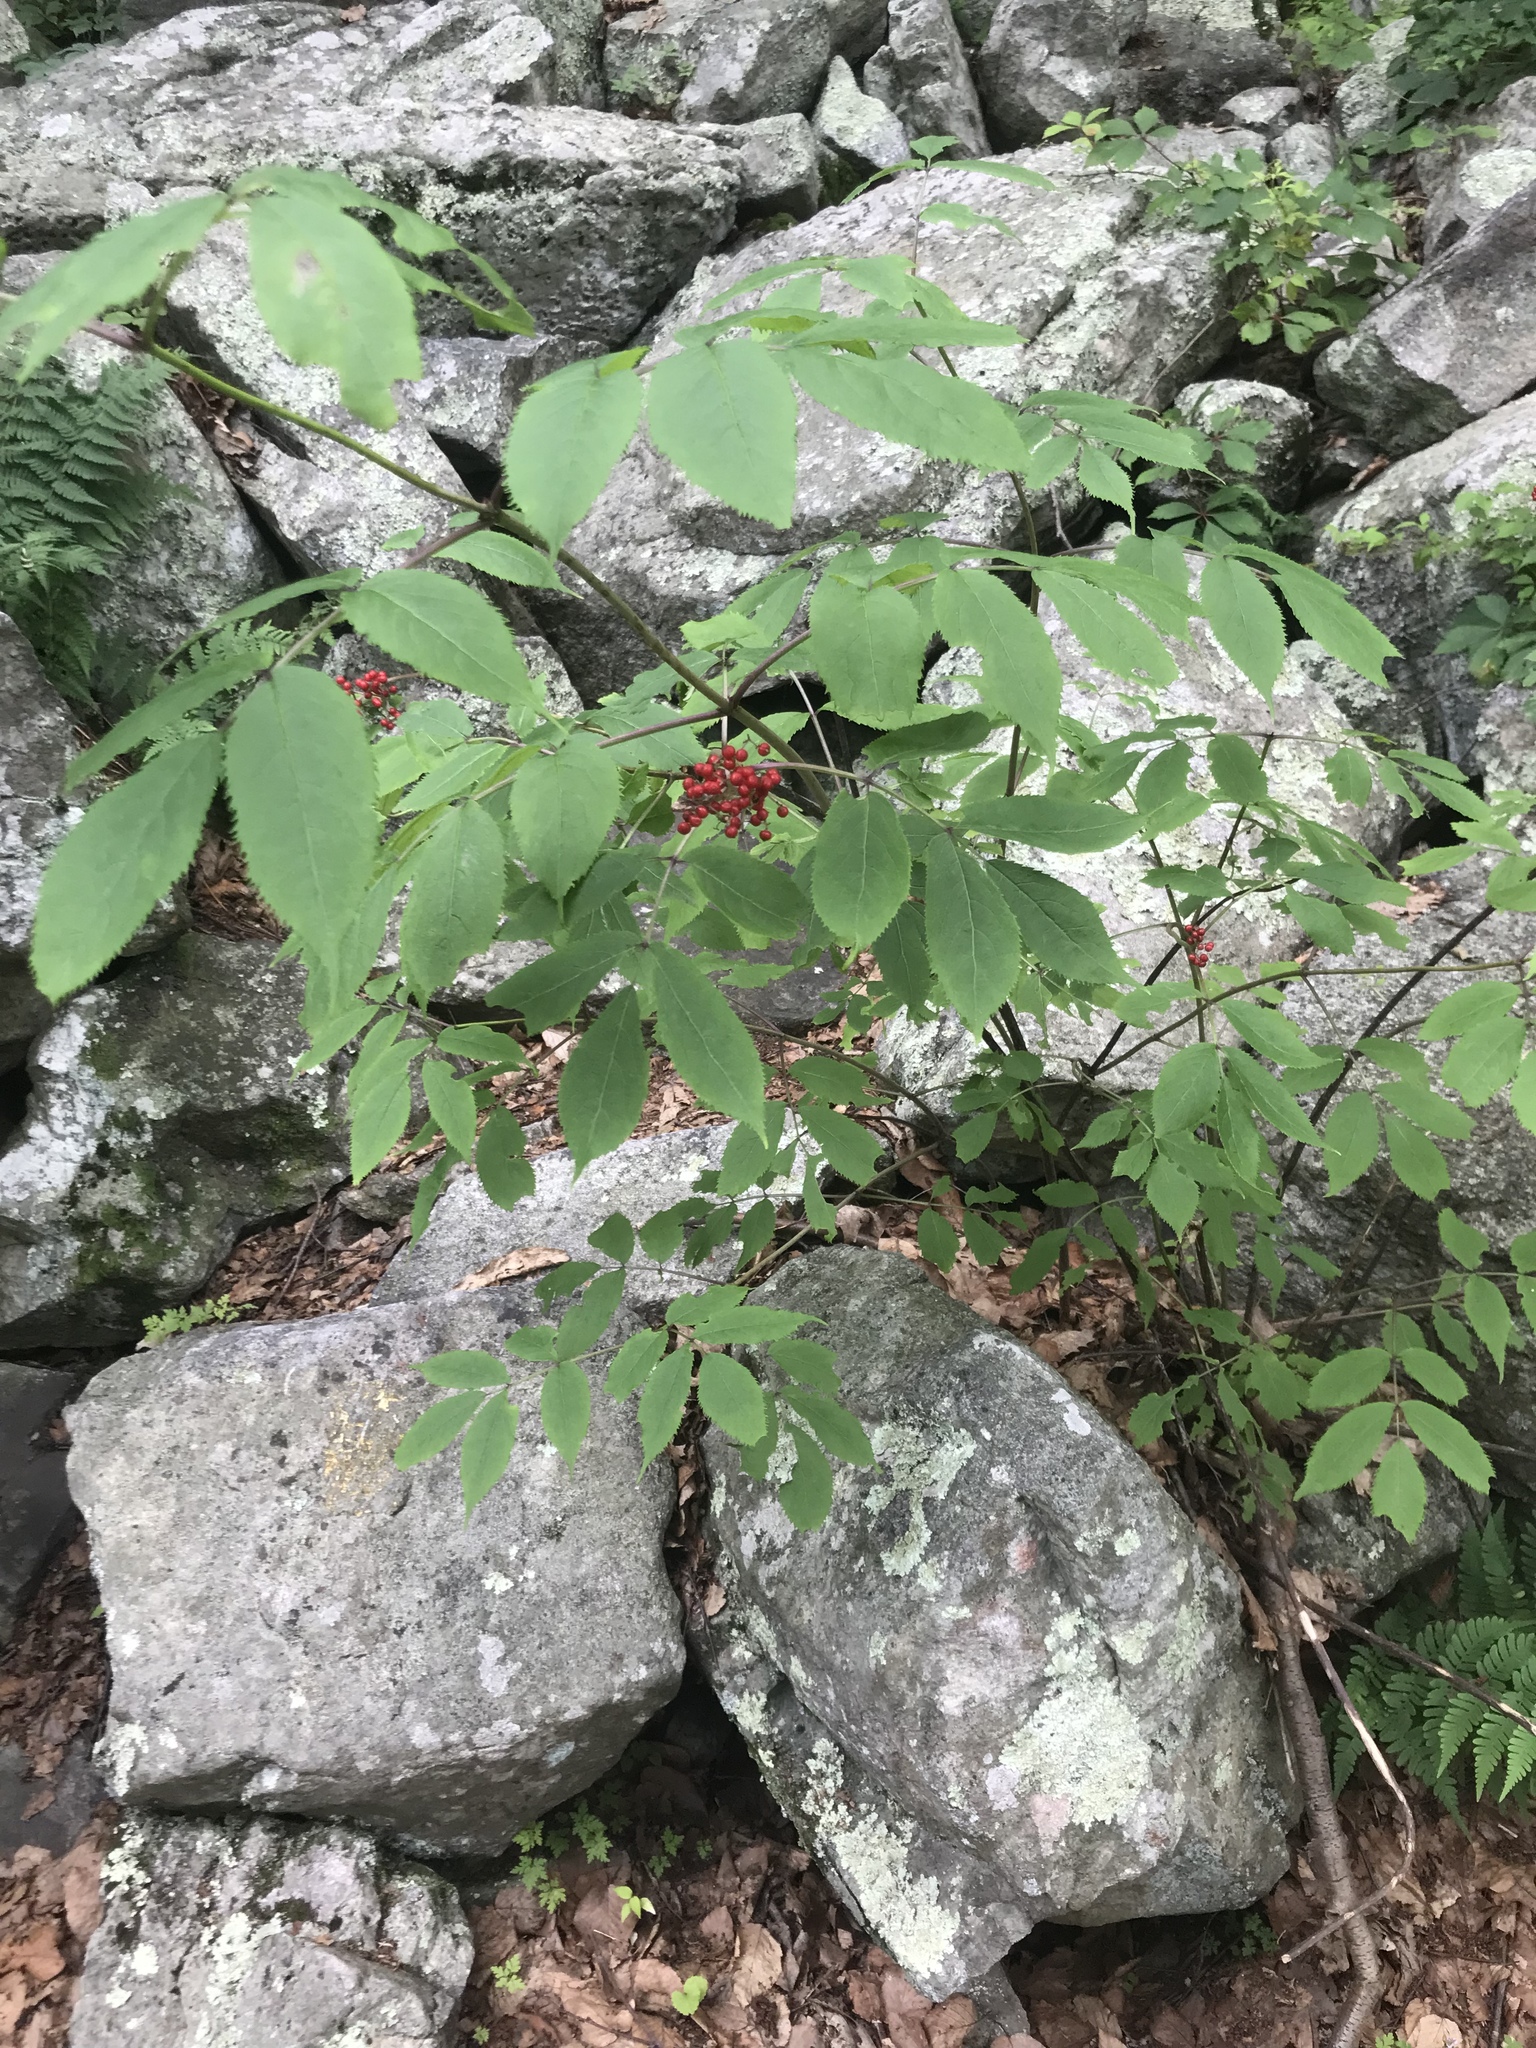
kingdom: Plantae
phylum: Tracheophyta
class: Magnoliopsida
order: Dipsacales
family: Viburnaceae
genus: Sambucus
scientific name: Sambucus racemosa
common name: Red-berried elder
